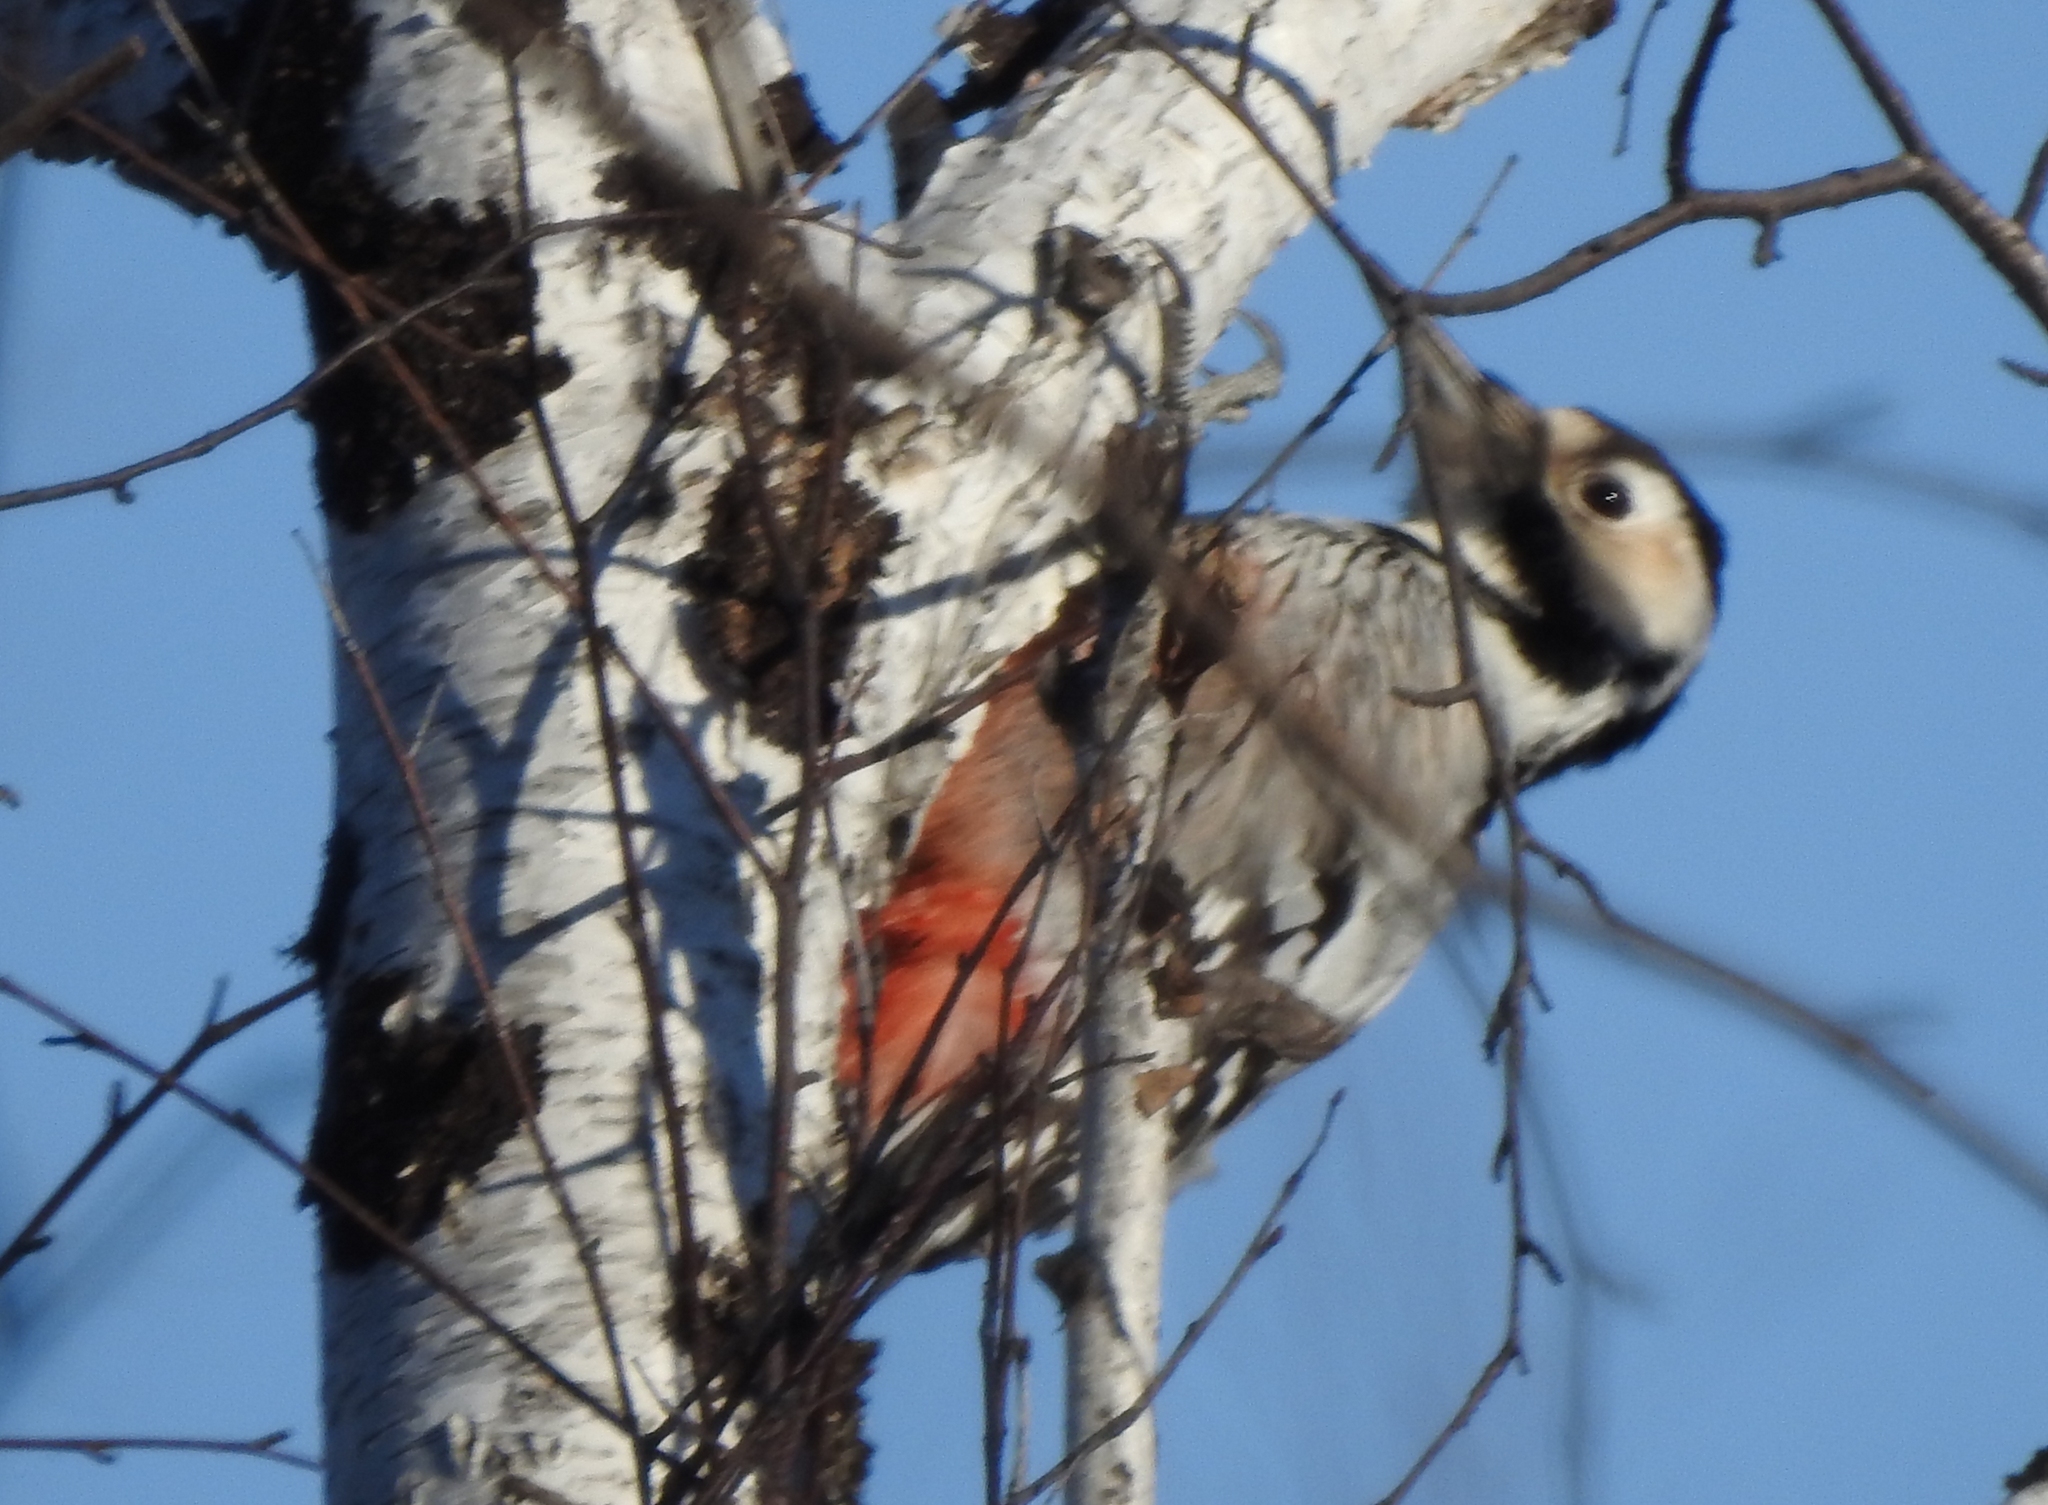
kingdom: Animalia
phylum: Chordata
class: Aves
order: Piciformes
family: Picidae
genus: Dendrocopos
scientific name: Dendrocopos leucotos
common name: White-backed woodpecker
